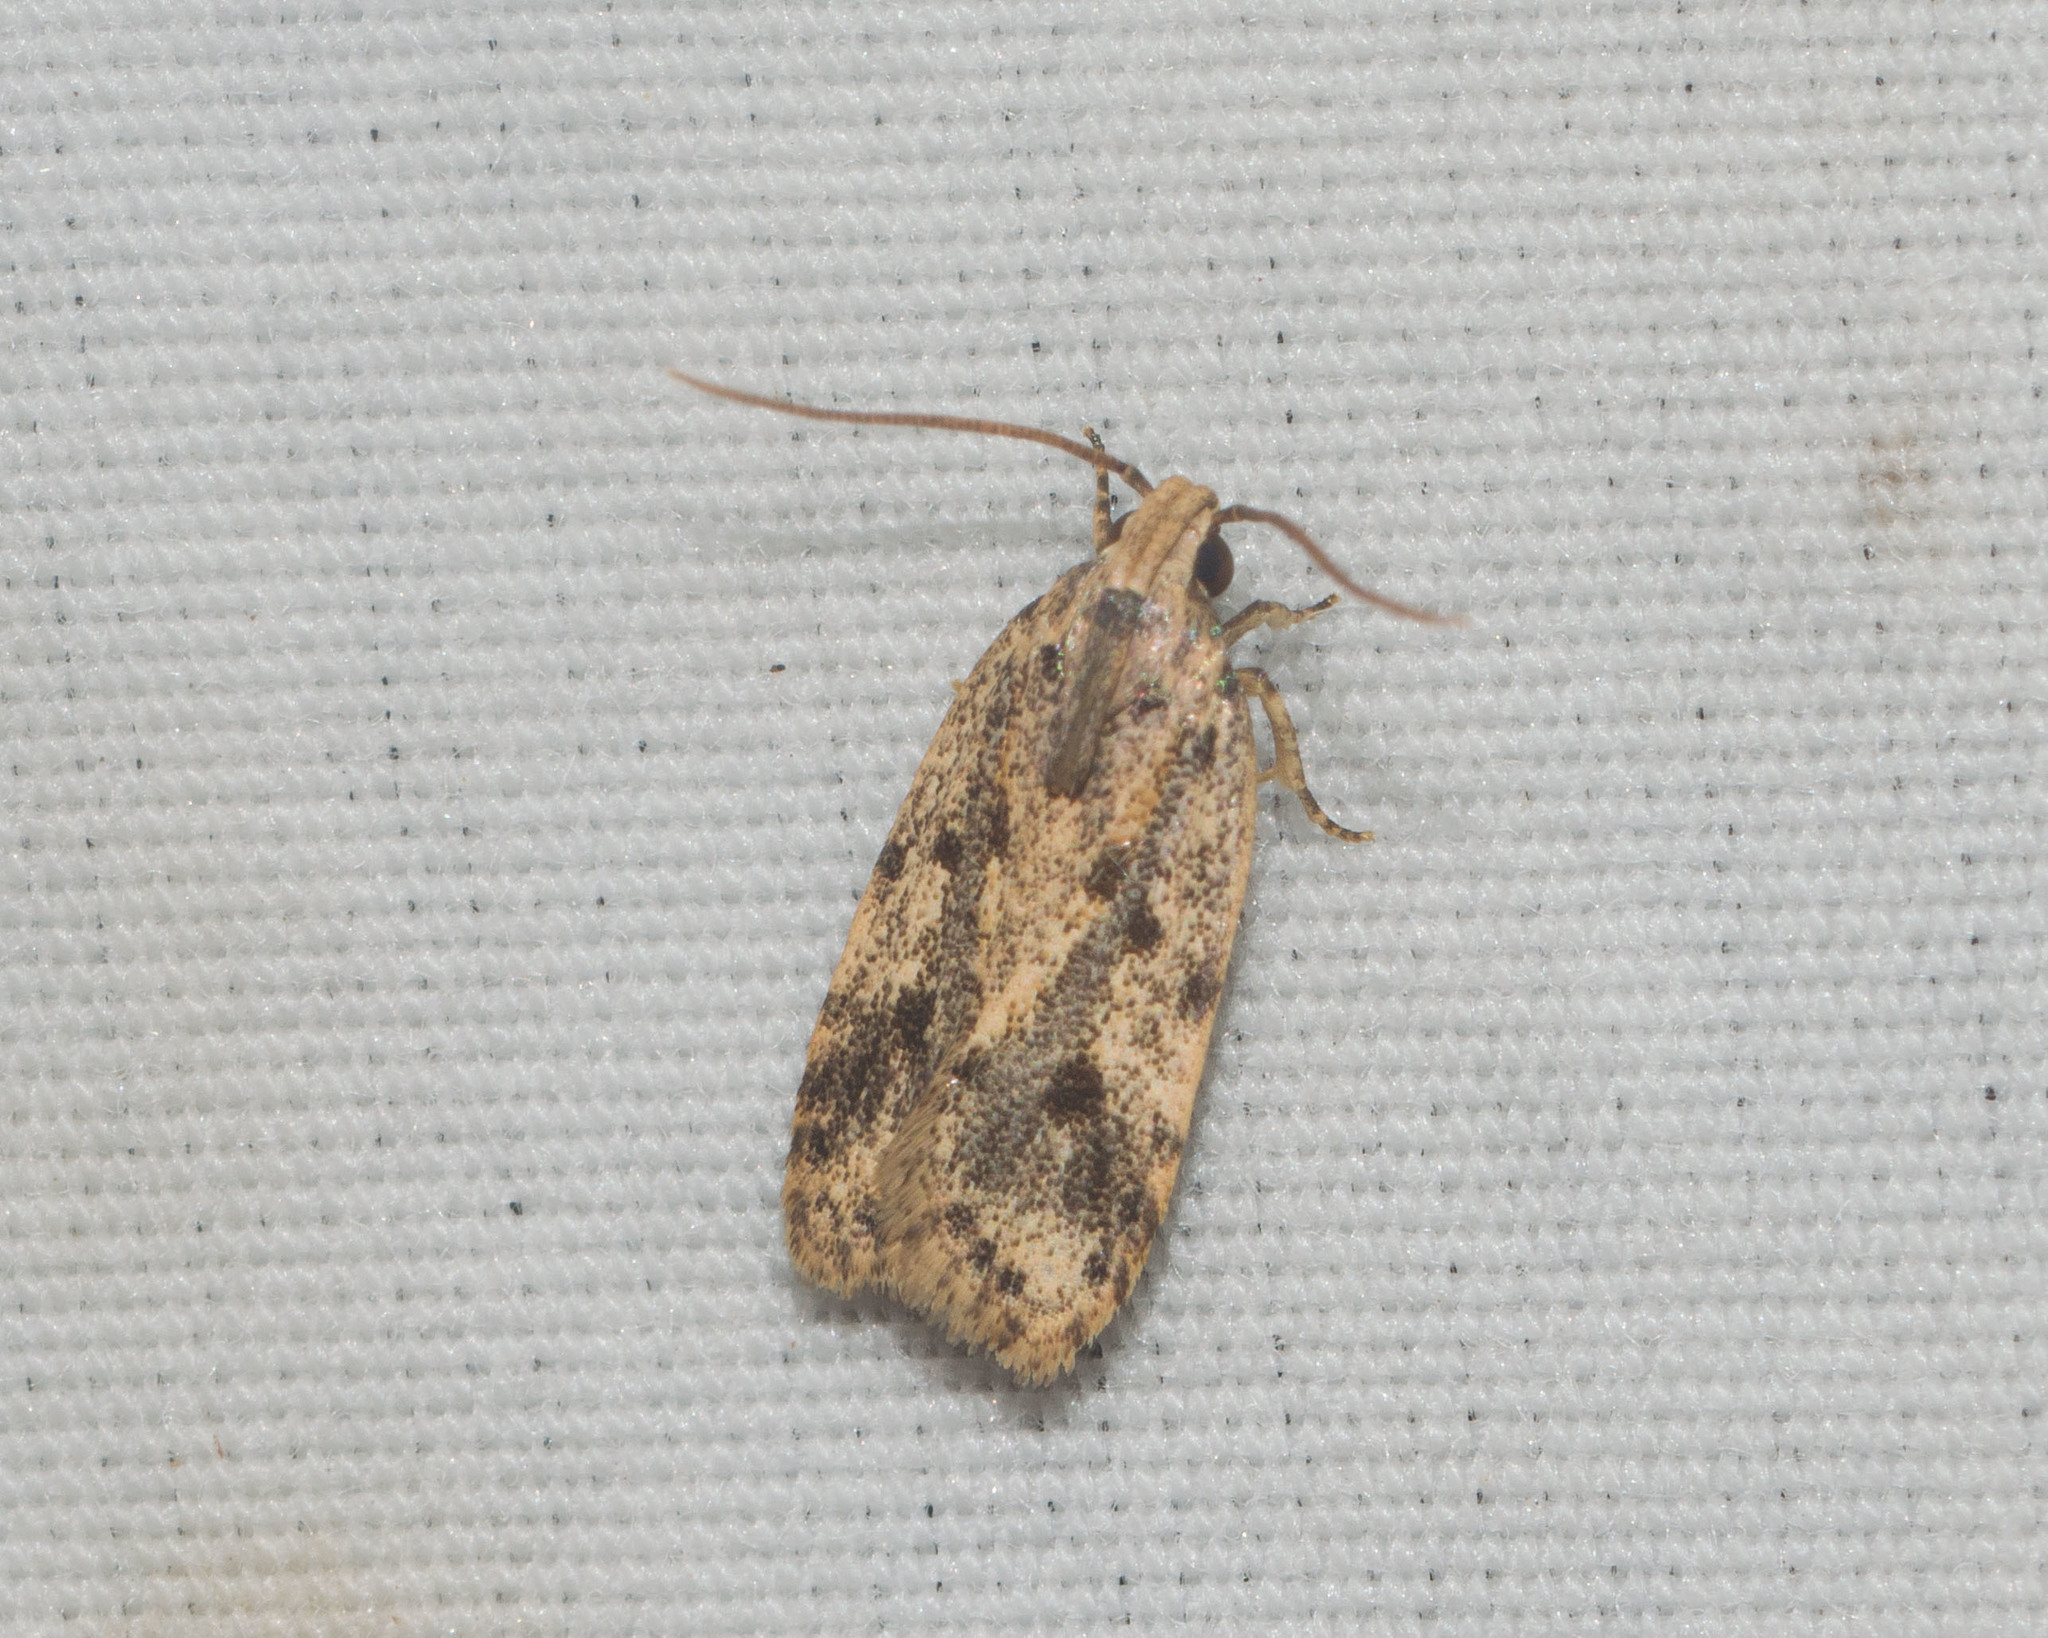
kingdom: Animalia
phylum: Arthropoda
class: Insecta
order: Lepidoptera
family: Autostichidae
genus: Stoeberhinus
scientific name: Stoeberhinus testaceus
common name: Moth
